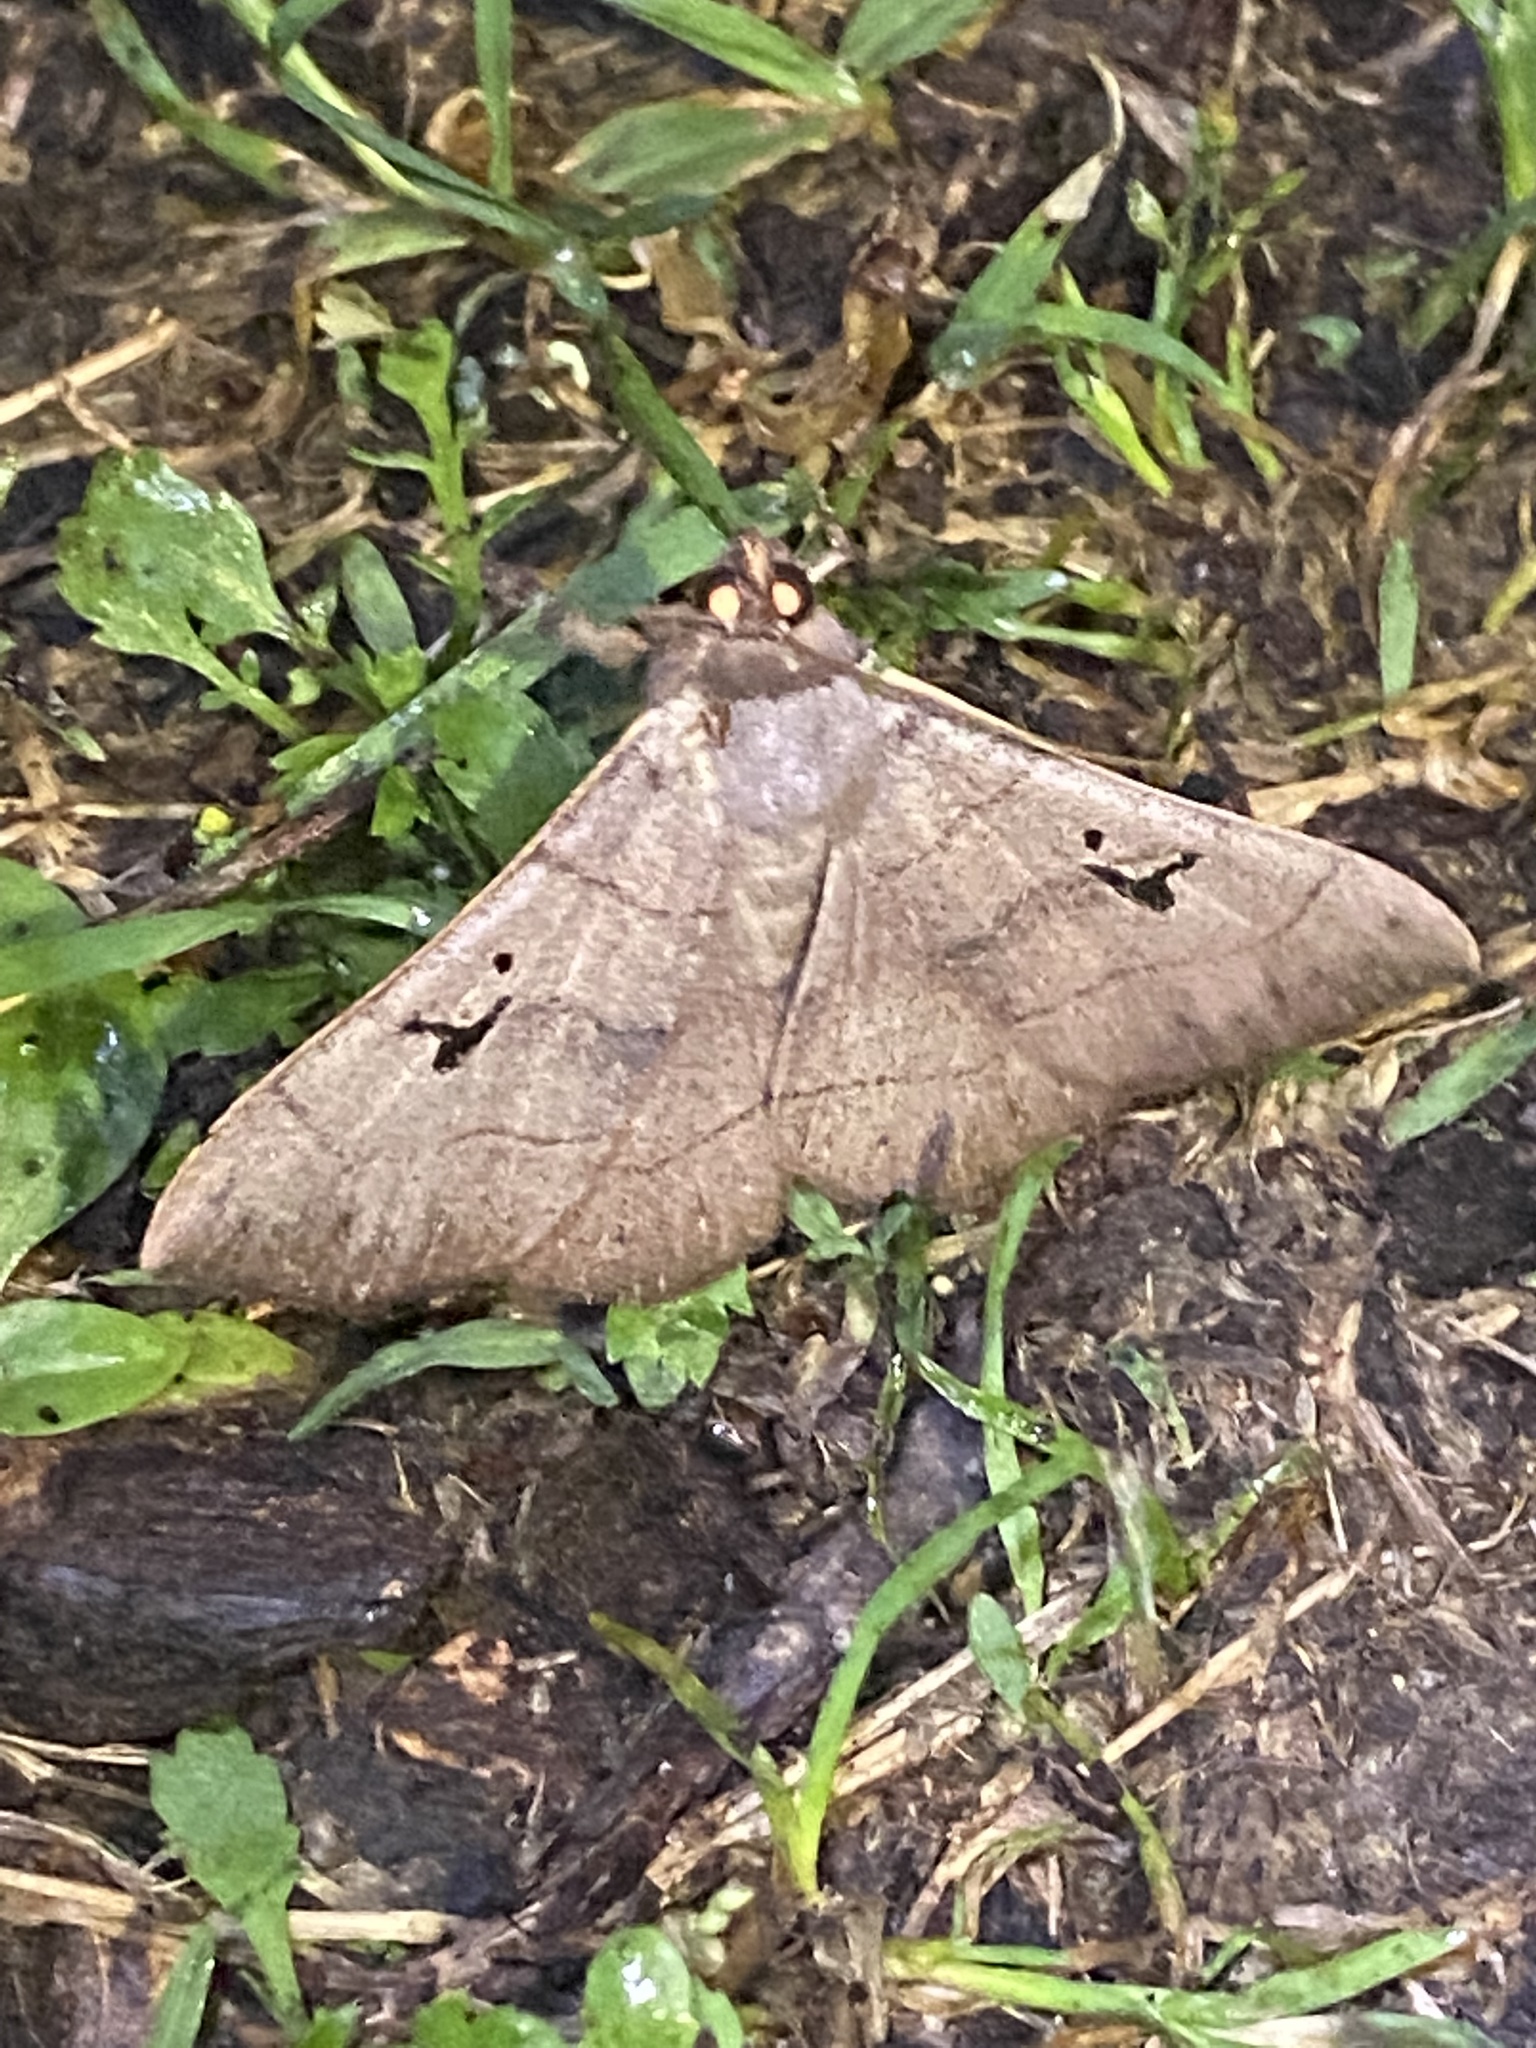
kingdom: Animalia
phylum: Arthropoda
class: Insecta
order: Lepidoptera
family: Erebidae
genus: Panopoda
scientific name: Panopoda carneicosta
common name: Brown panopoda moth
